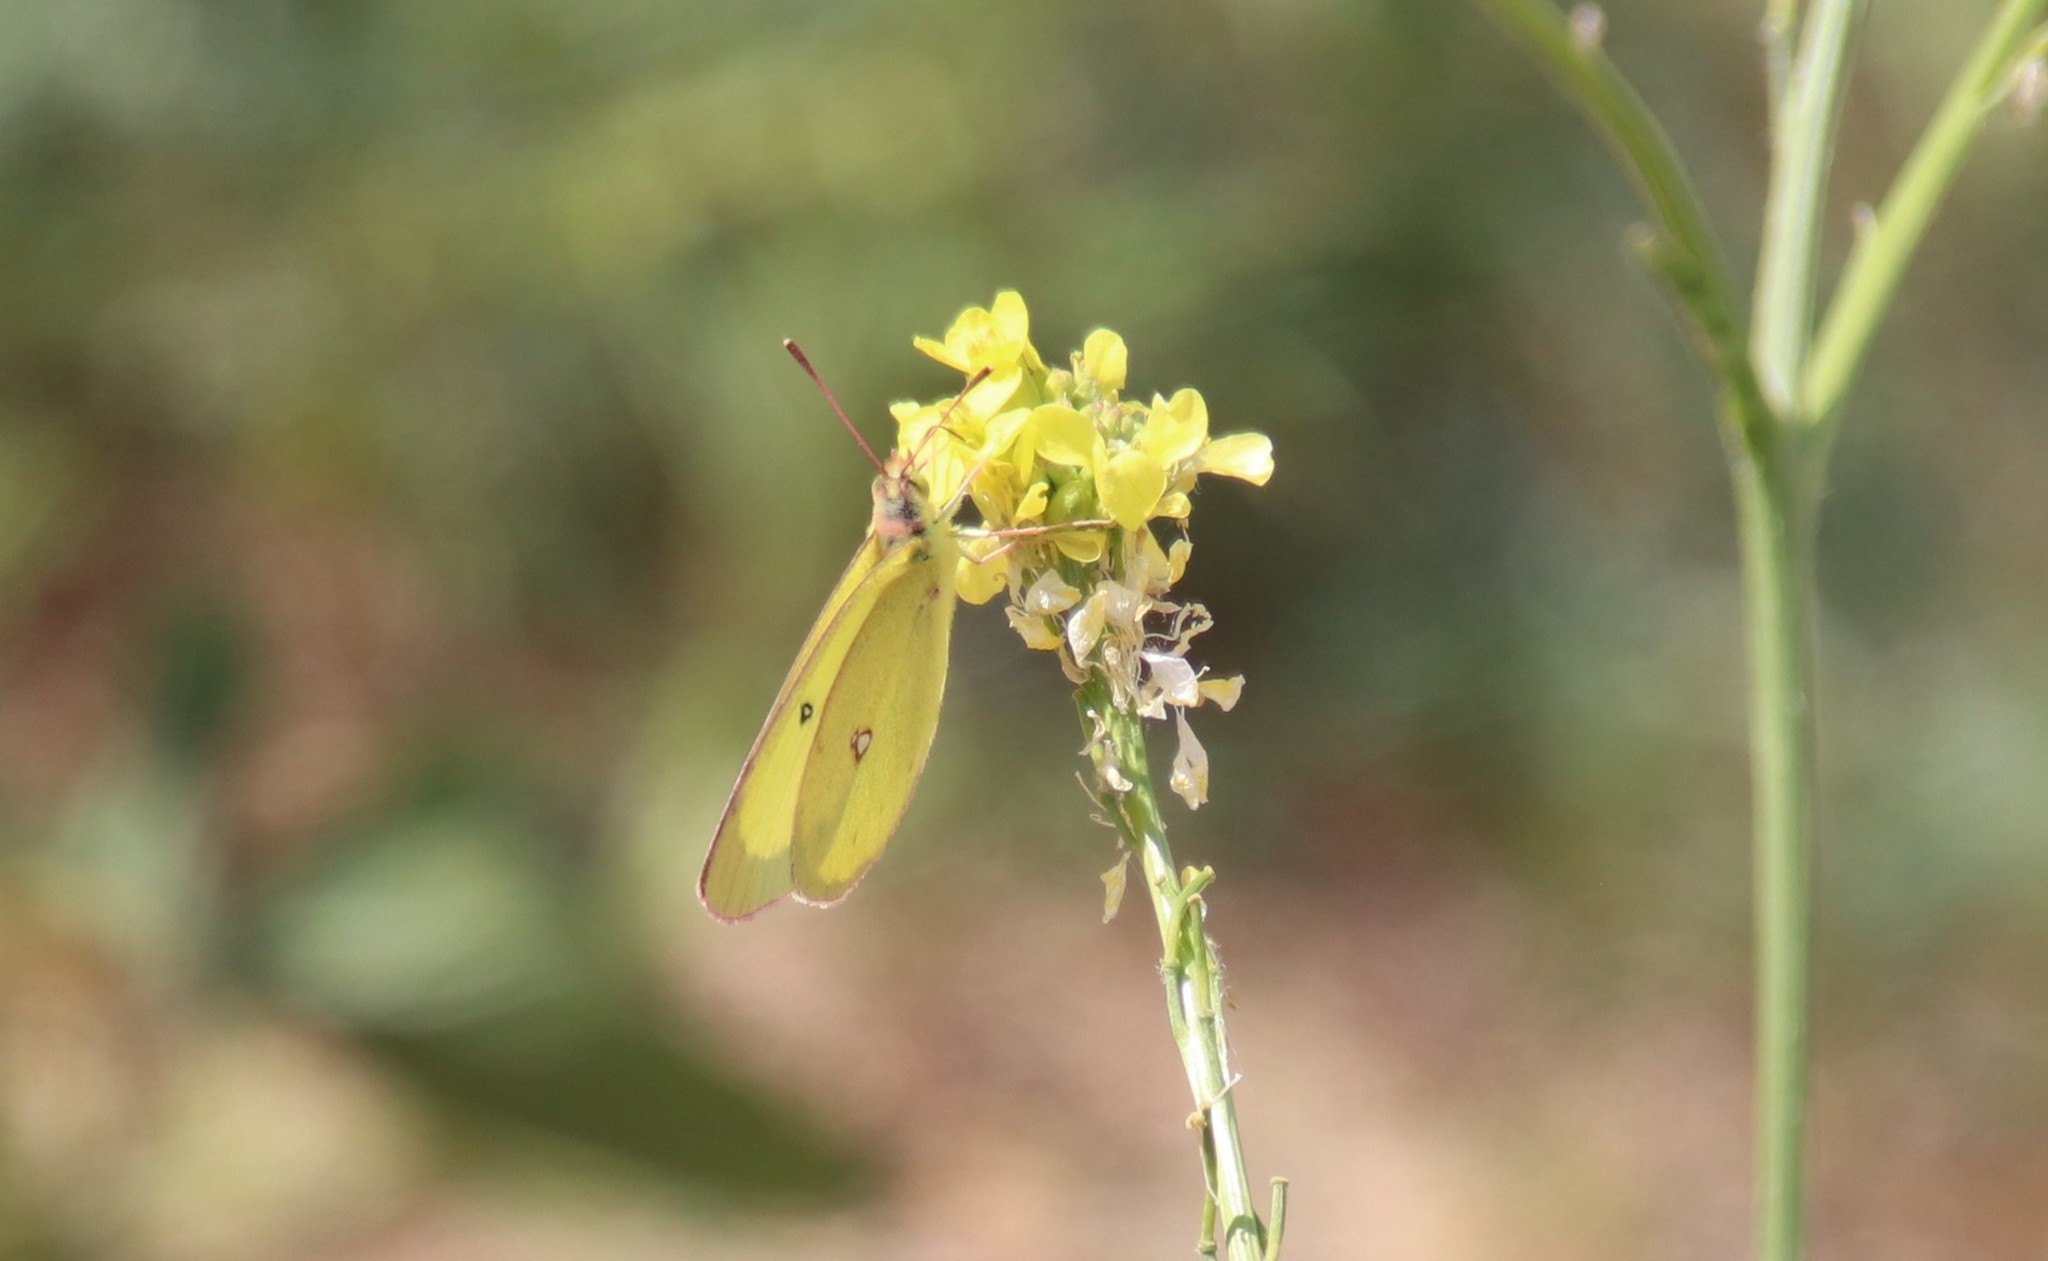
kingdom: Animalia
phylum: Arthropoda
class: Insecta
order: Lepidoptera
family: Pieridae
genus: Colias
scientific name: Colias eurytheme
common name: Alfalfa butterfly
